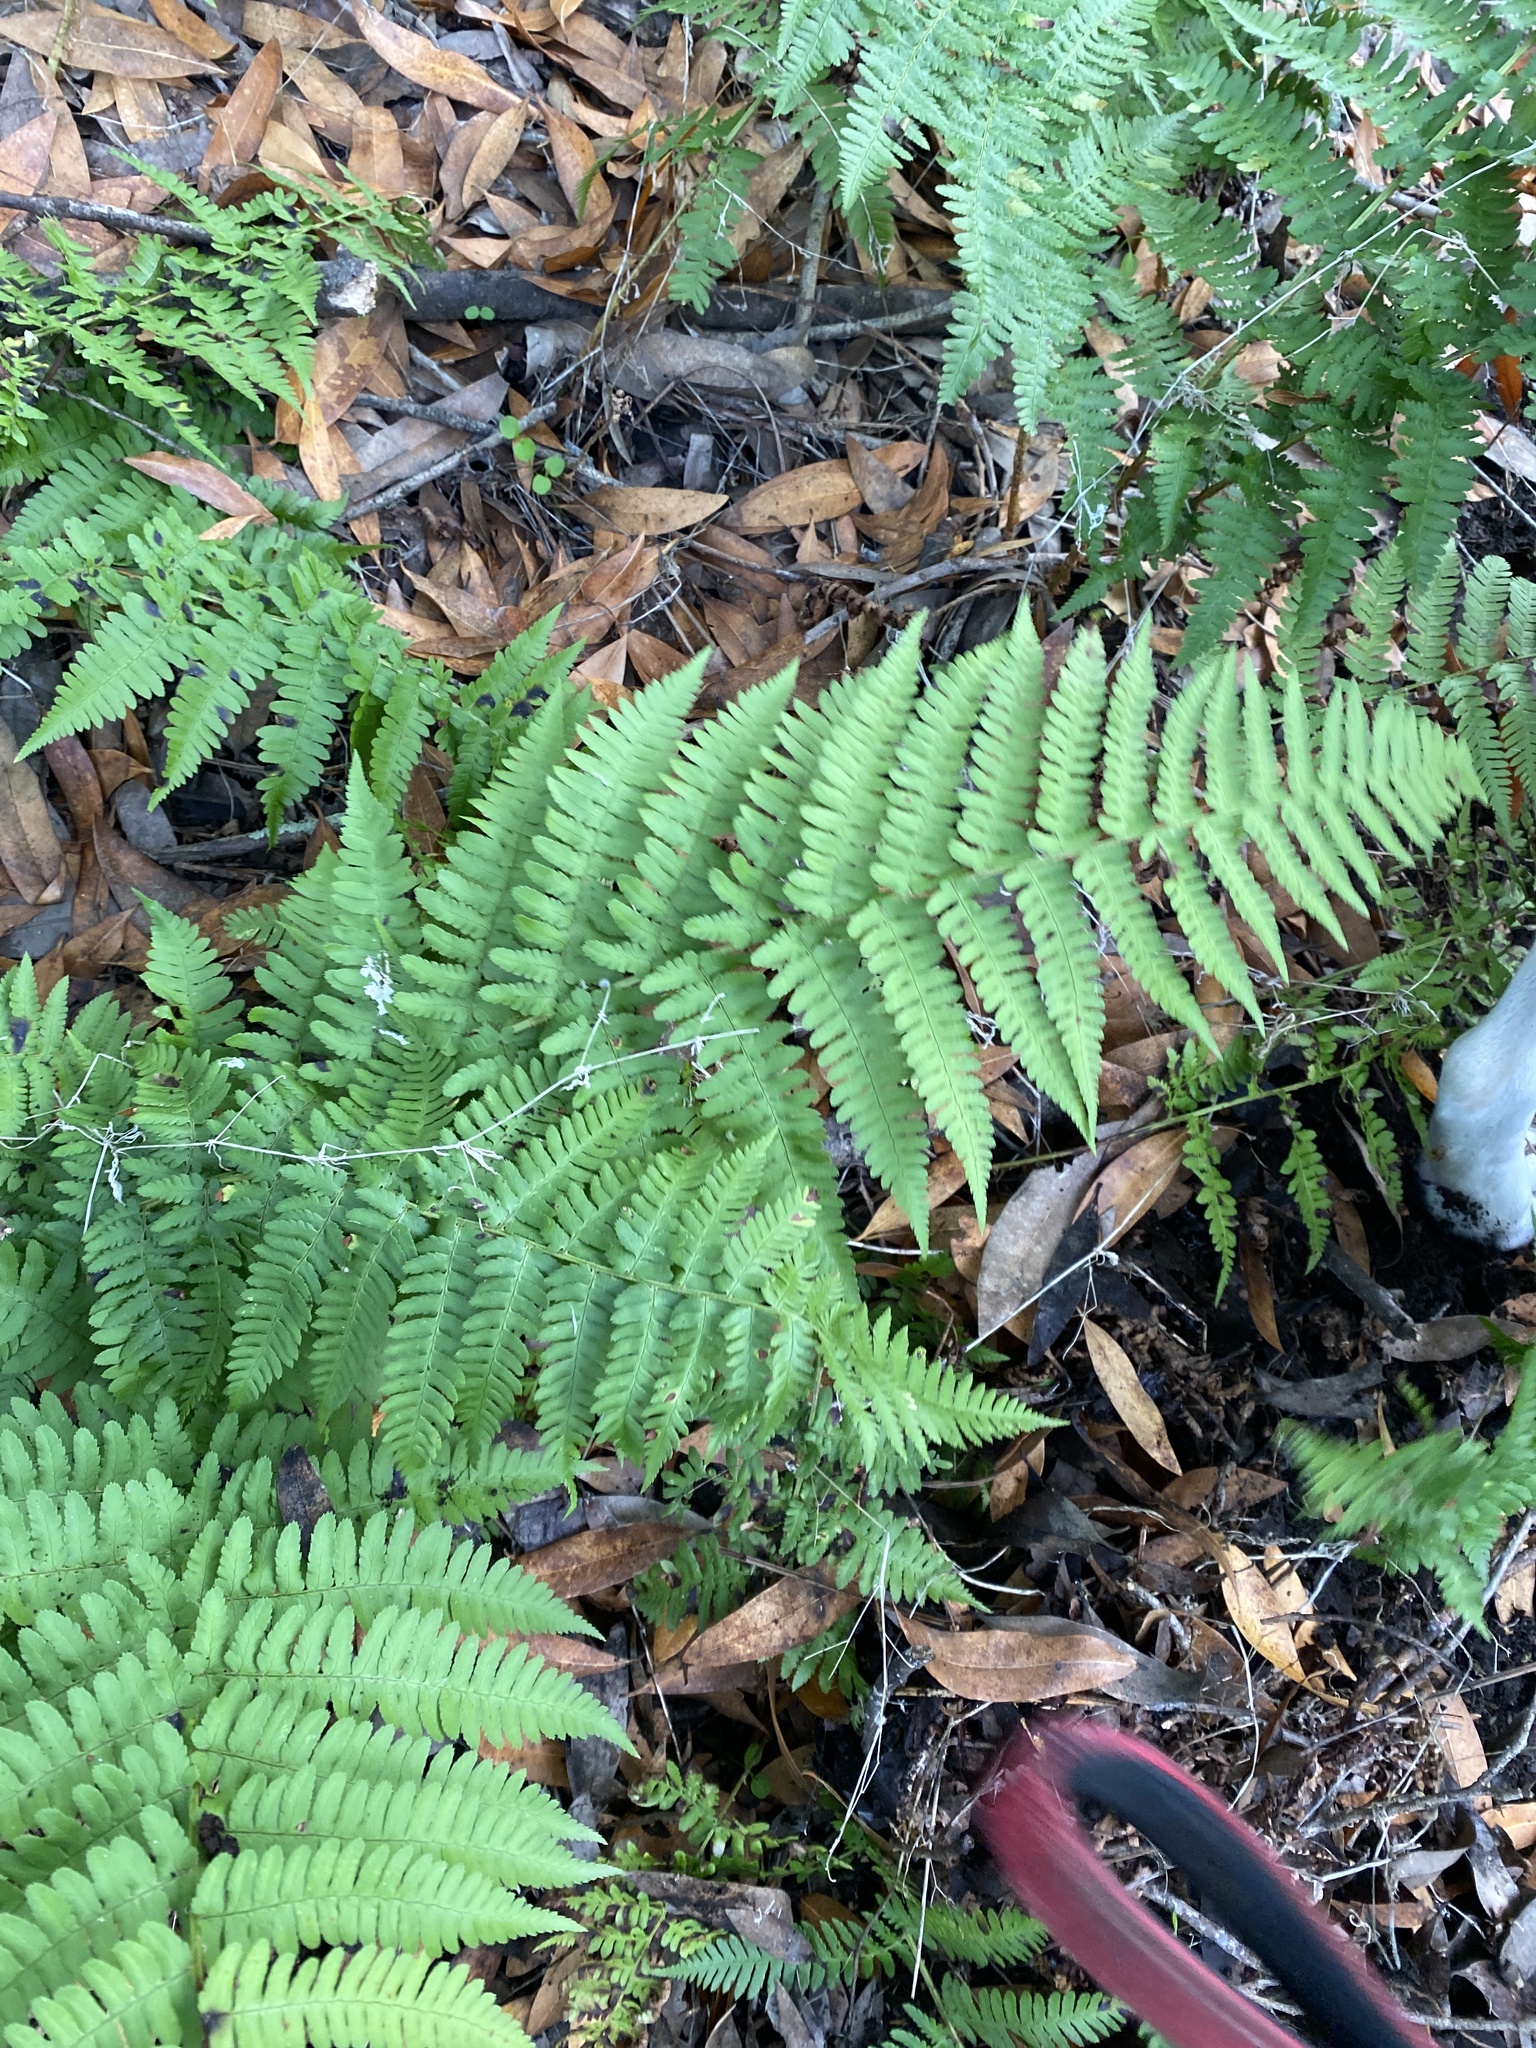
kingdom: Plantae
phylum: Tracheophyta
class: Polypodiopsida
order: Polypodiales
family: Dryopteridaceae
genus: Dryopteris
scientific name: Dryopteris arguta
